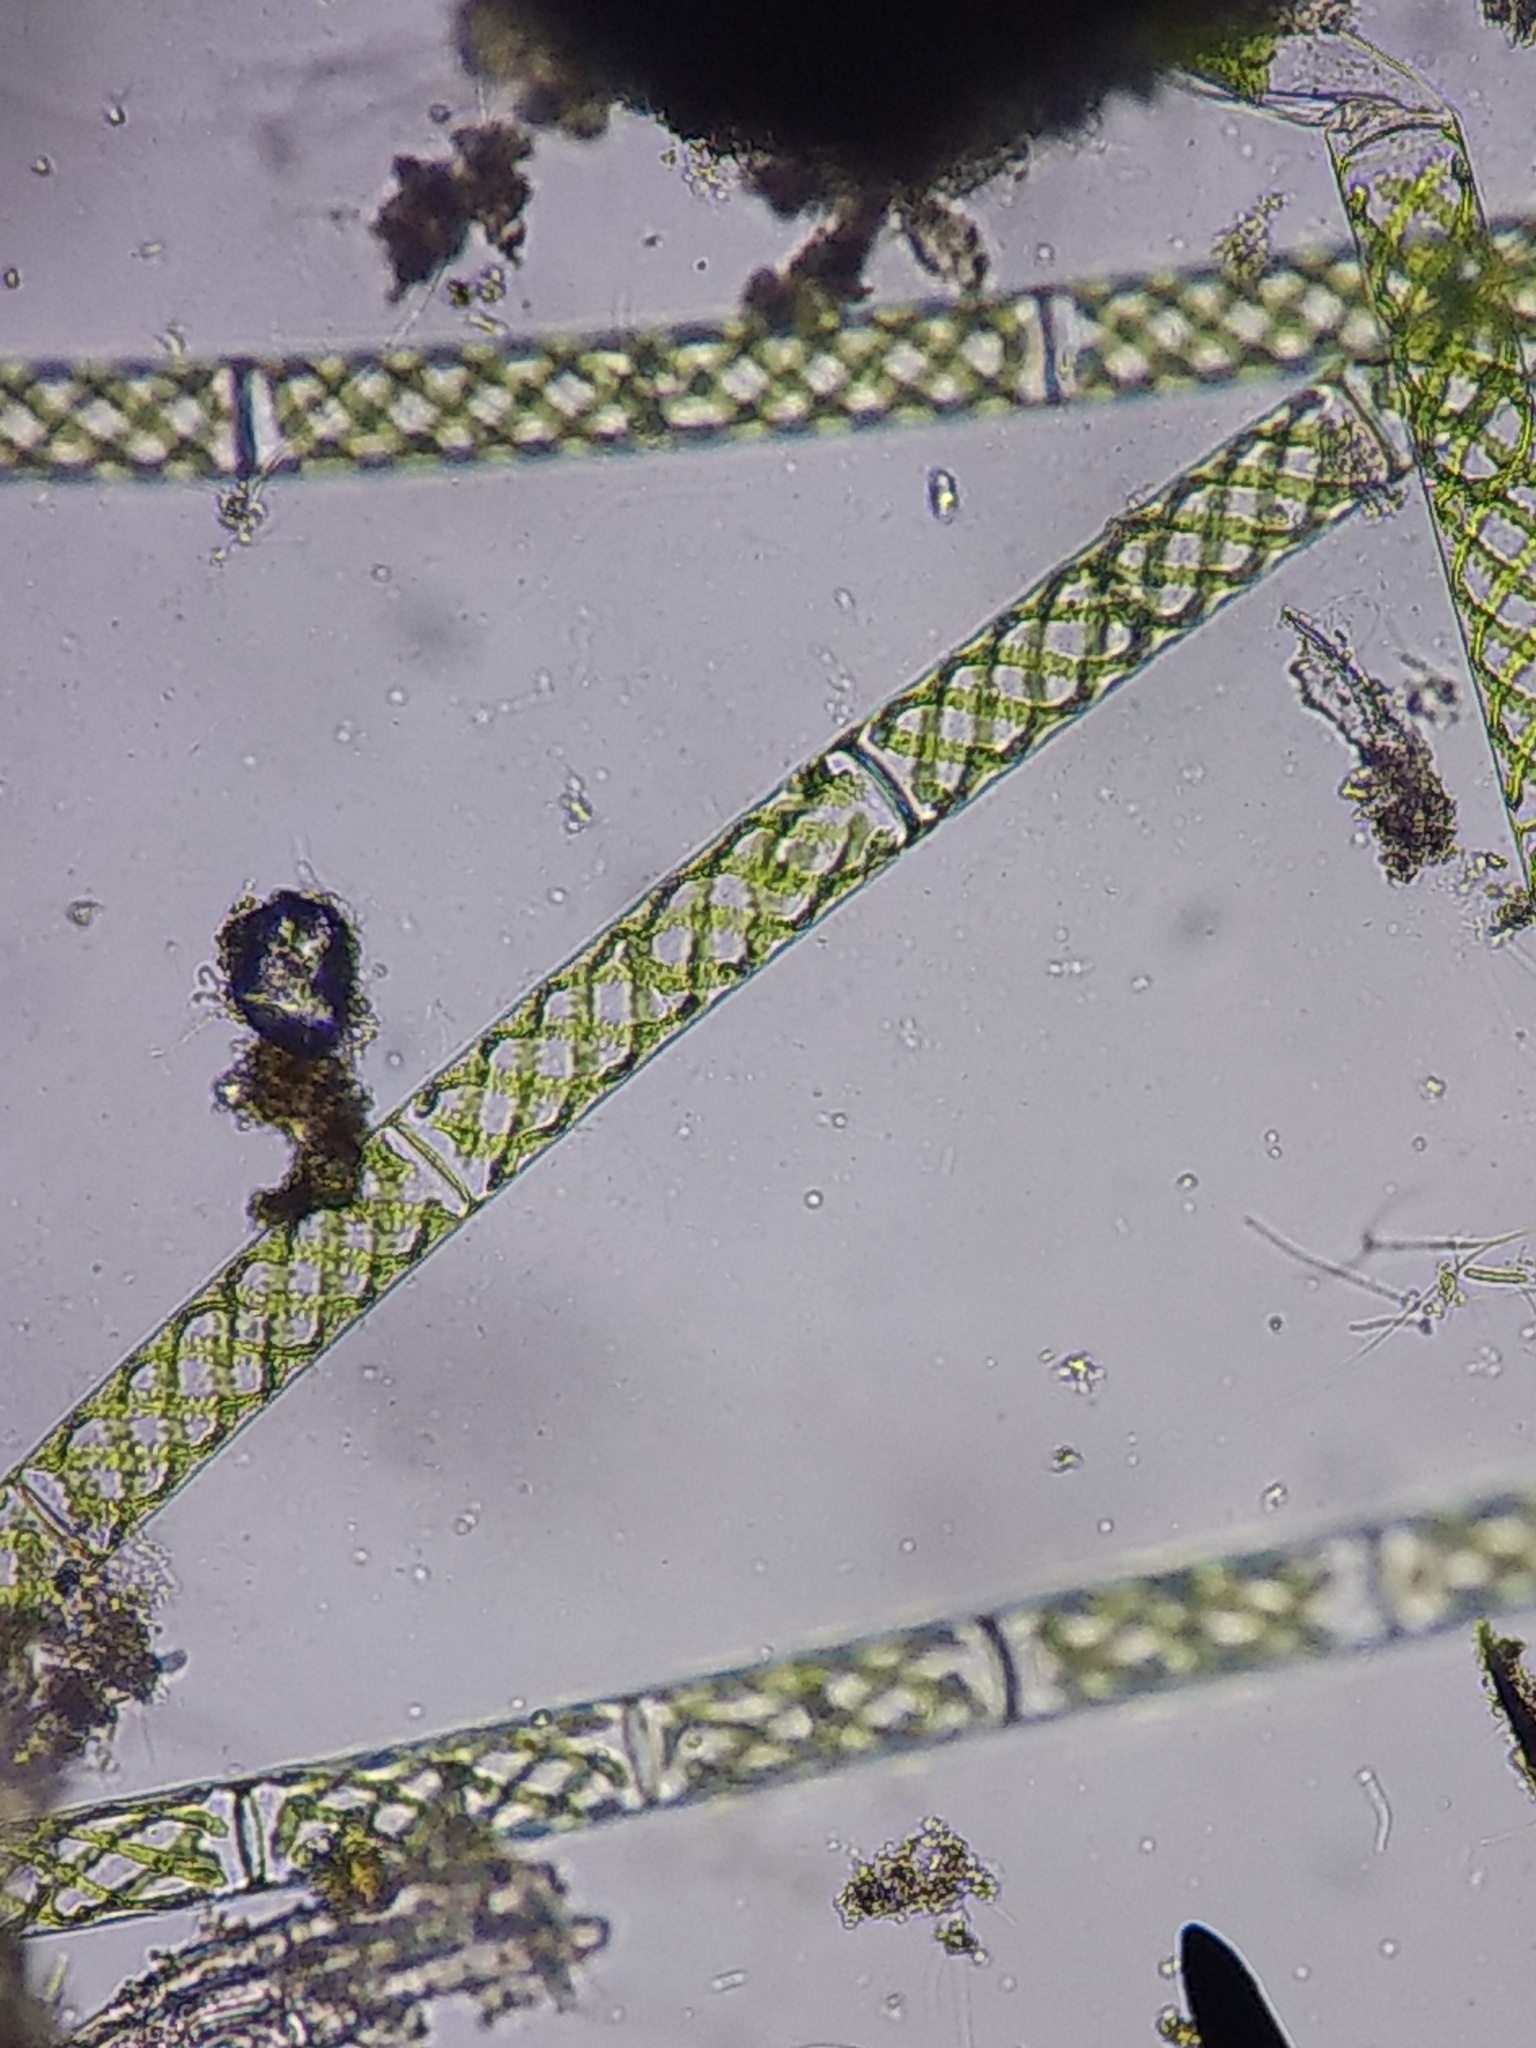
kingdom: Plantae
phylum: Charophyta
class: Zygnematophyceae
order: Zygnematales
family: Zygnemataceae
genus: Spirogyra
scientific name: Spirogyra
